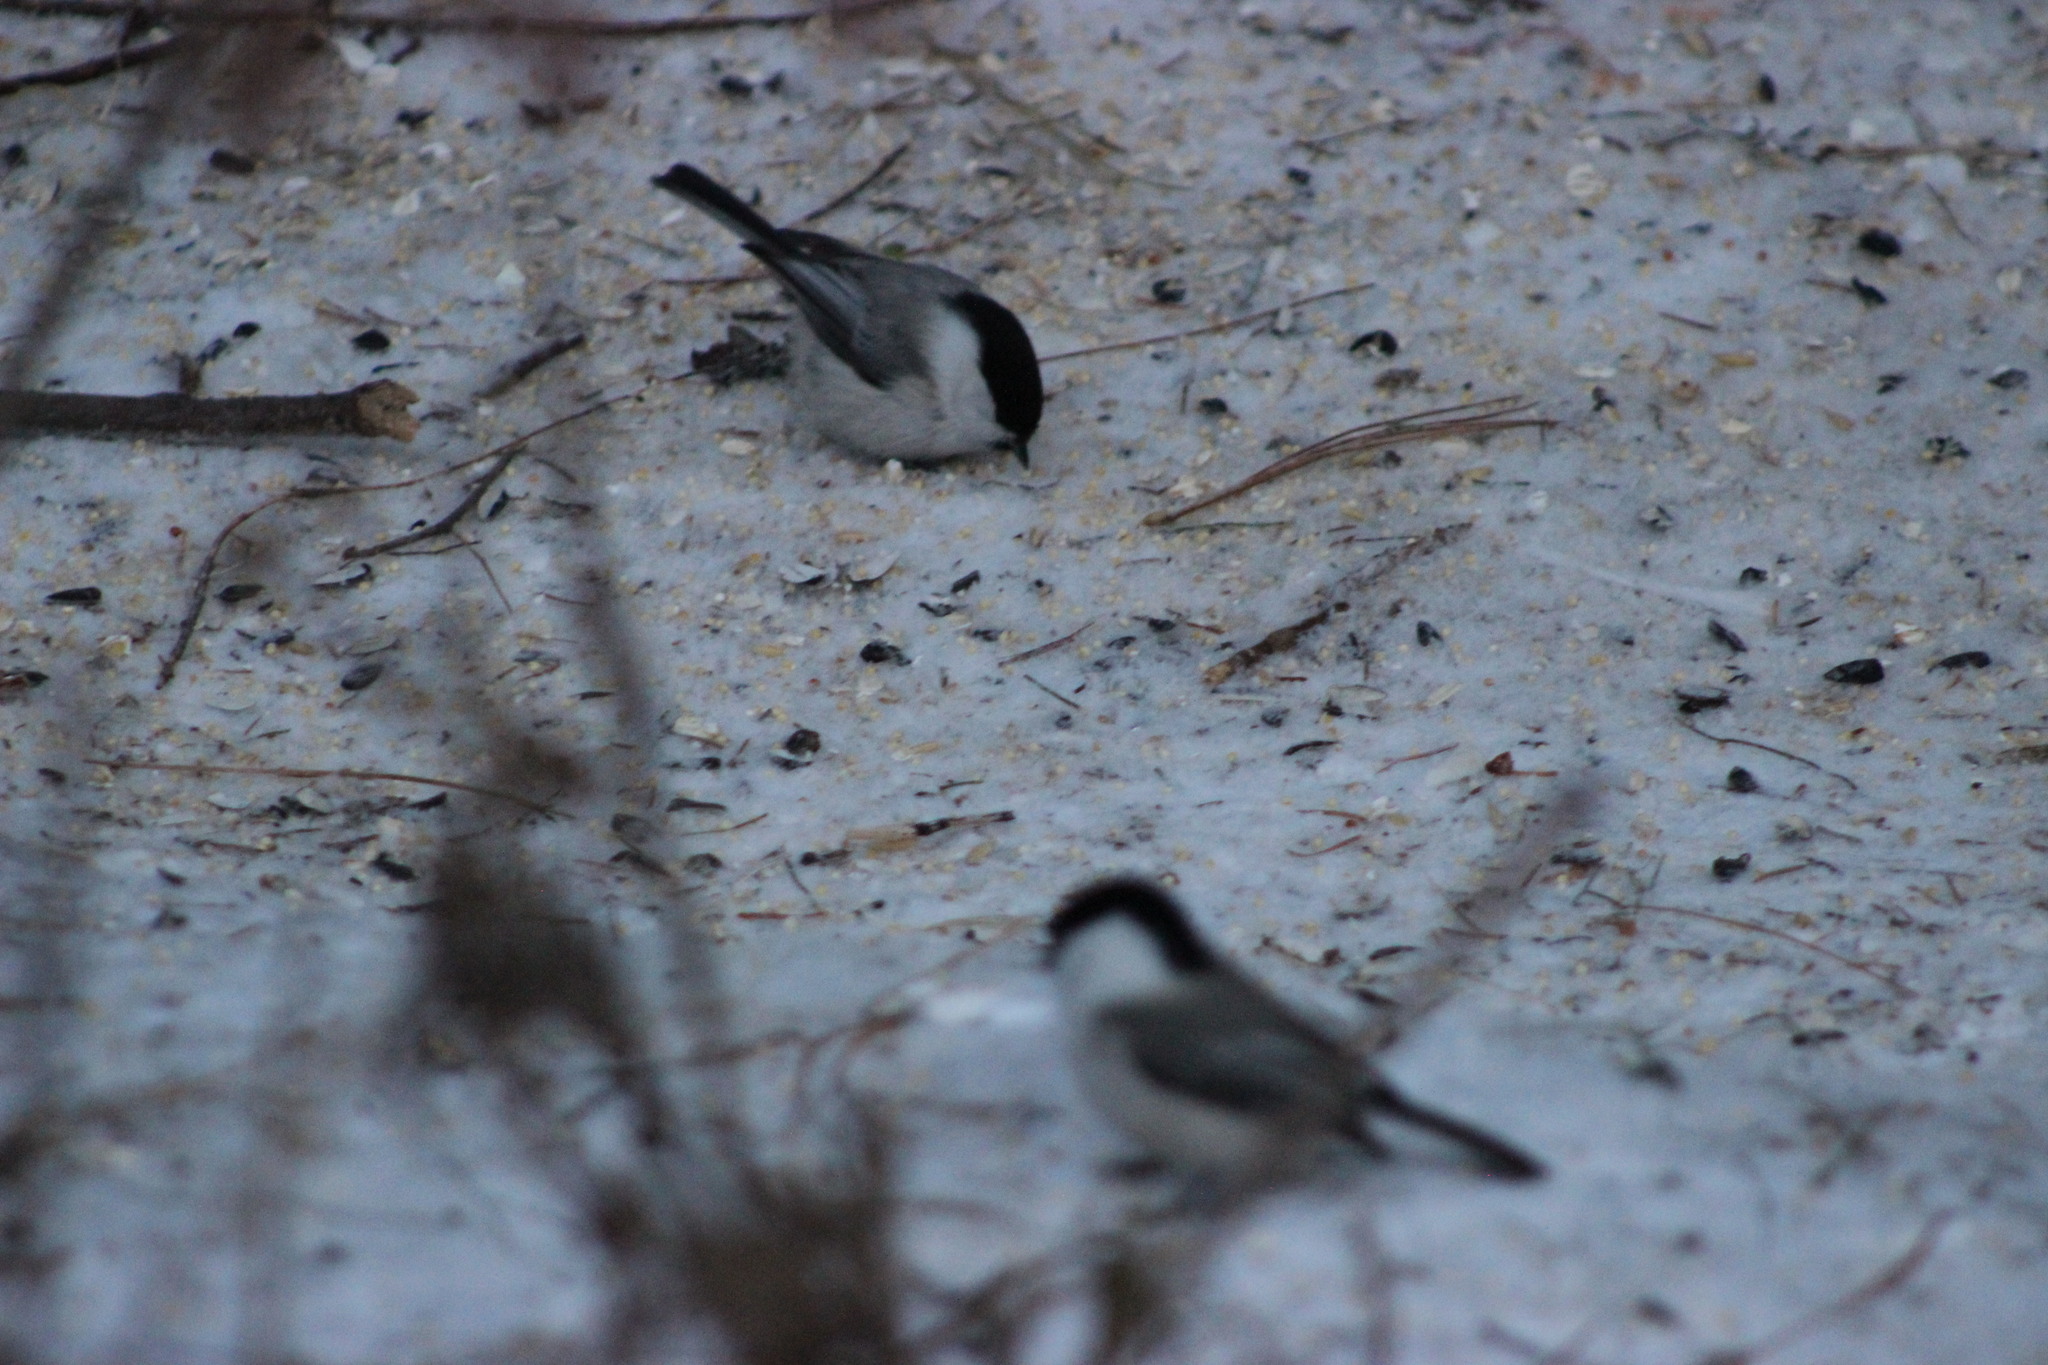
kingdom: Animalia
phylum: Chordata
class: Aves
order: Passeriformes
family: Paridae
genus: Poecile
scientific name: Poecile montanus
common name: Willow tit
